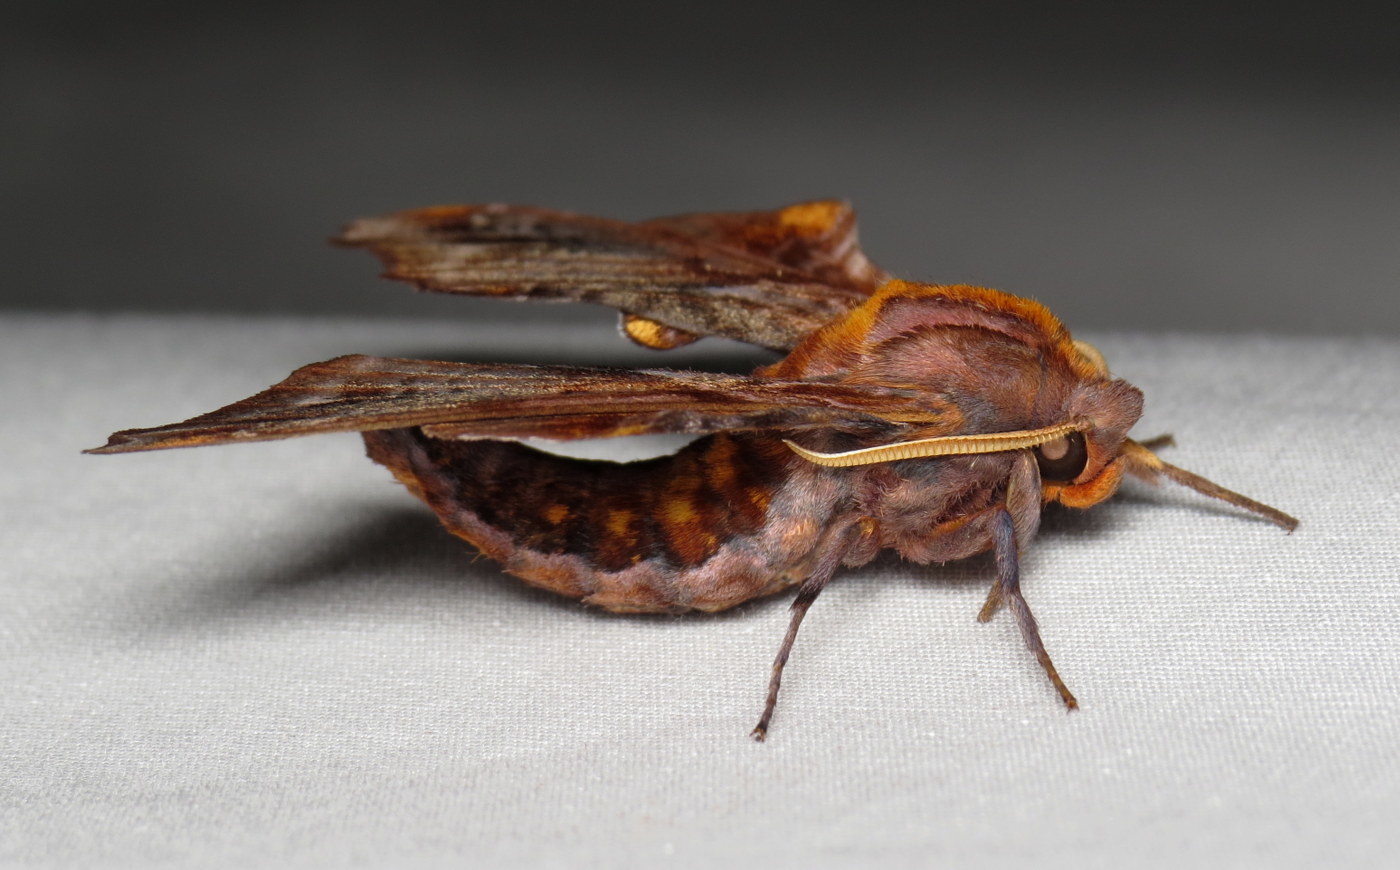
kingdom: Animalia
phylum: Arthropoda
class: Insecta
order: Lepidoptera
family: Sphingidae
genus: Paonias
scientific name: Paonias myops
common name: Small-eyed sphinx
